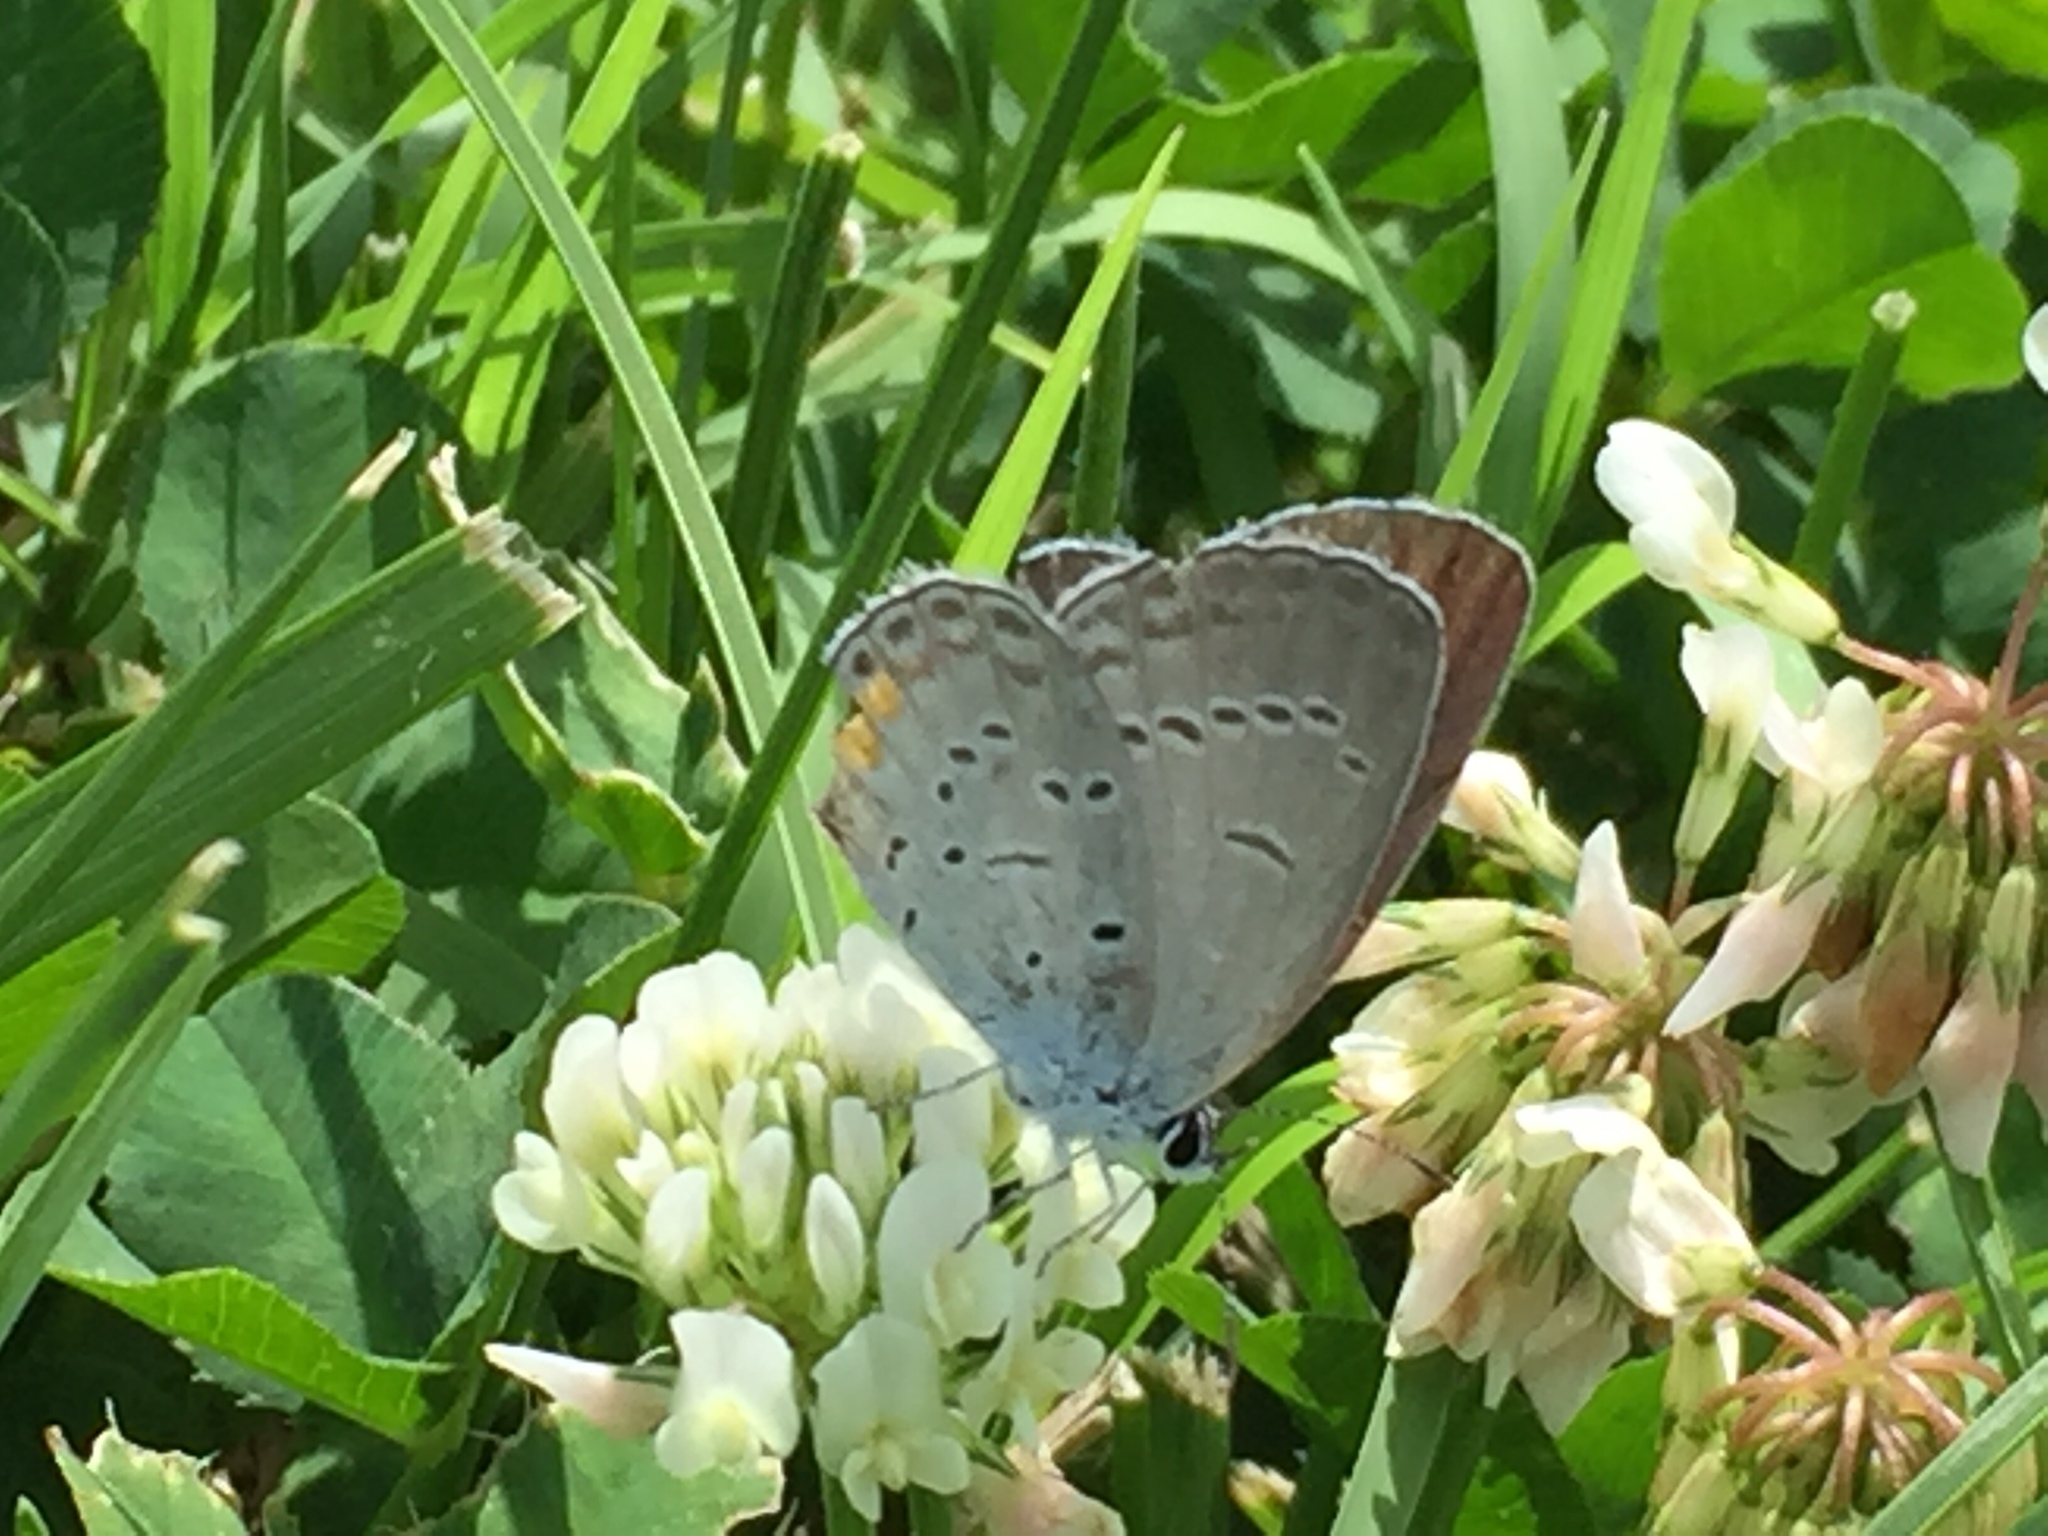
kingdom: Animalia
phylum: Arthropoda
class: Insecta
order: Lepidoptera
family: Lycaenidae
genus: Elkalyce
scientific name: Elkalyce comyntas
